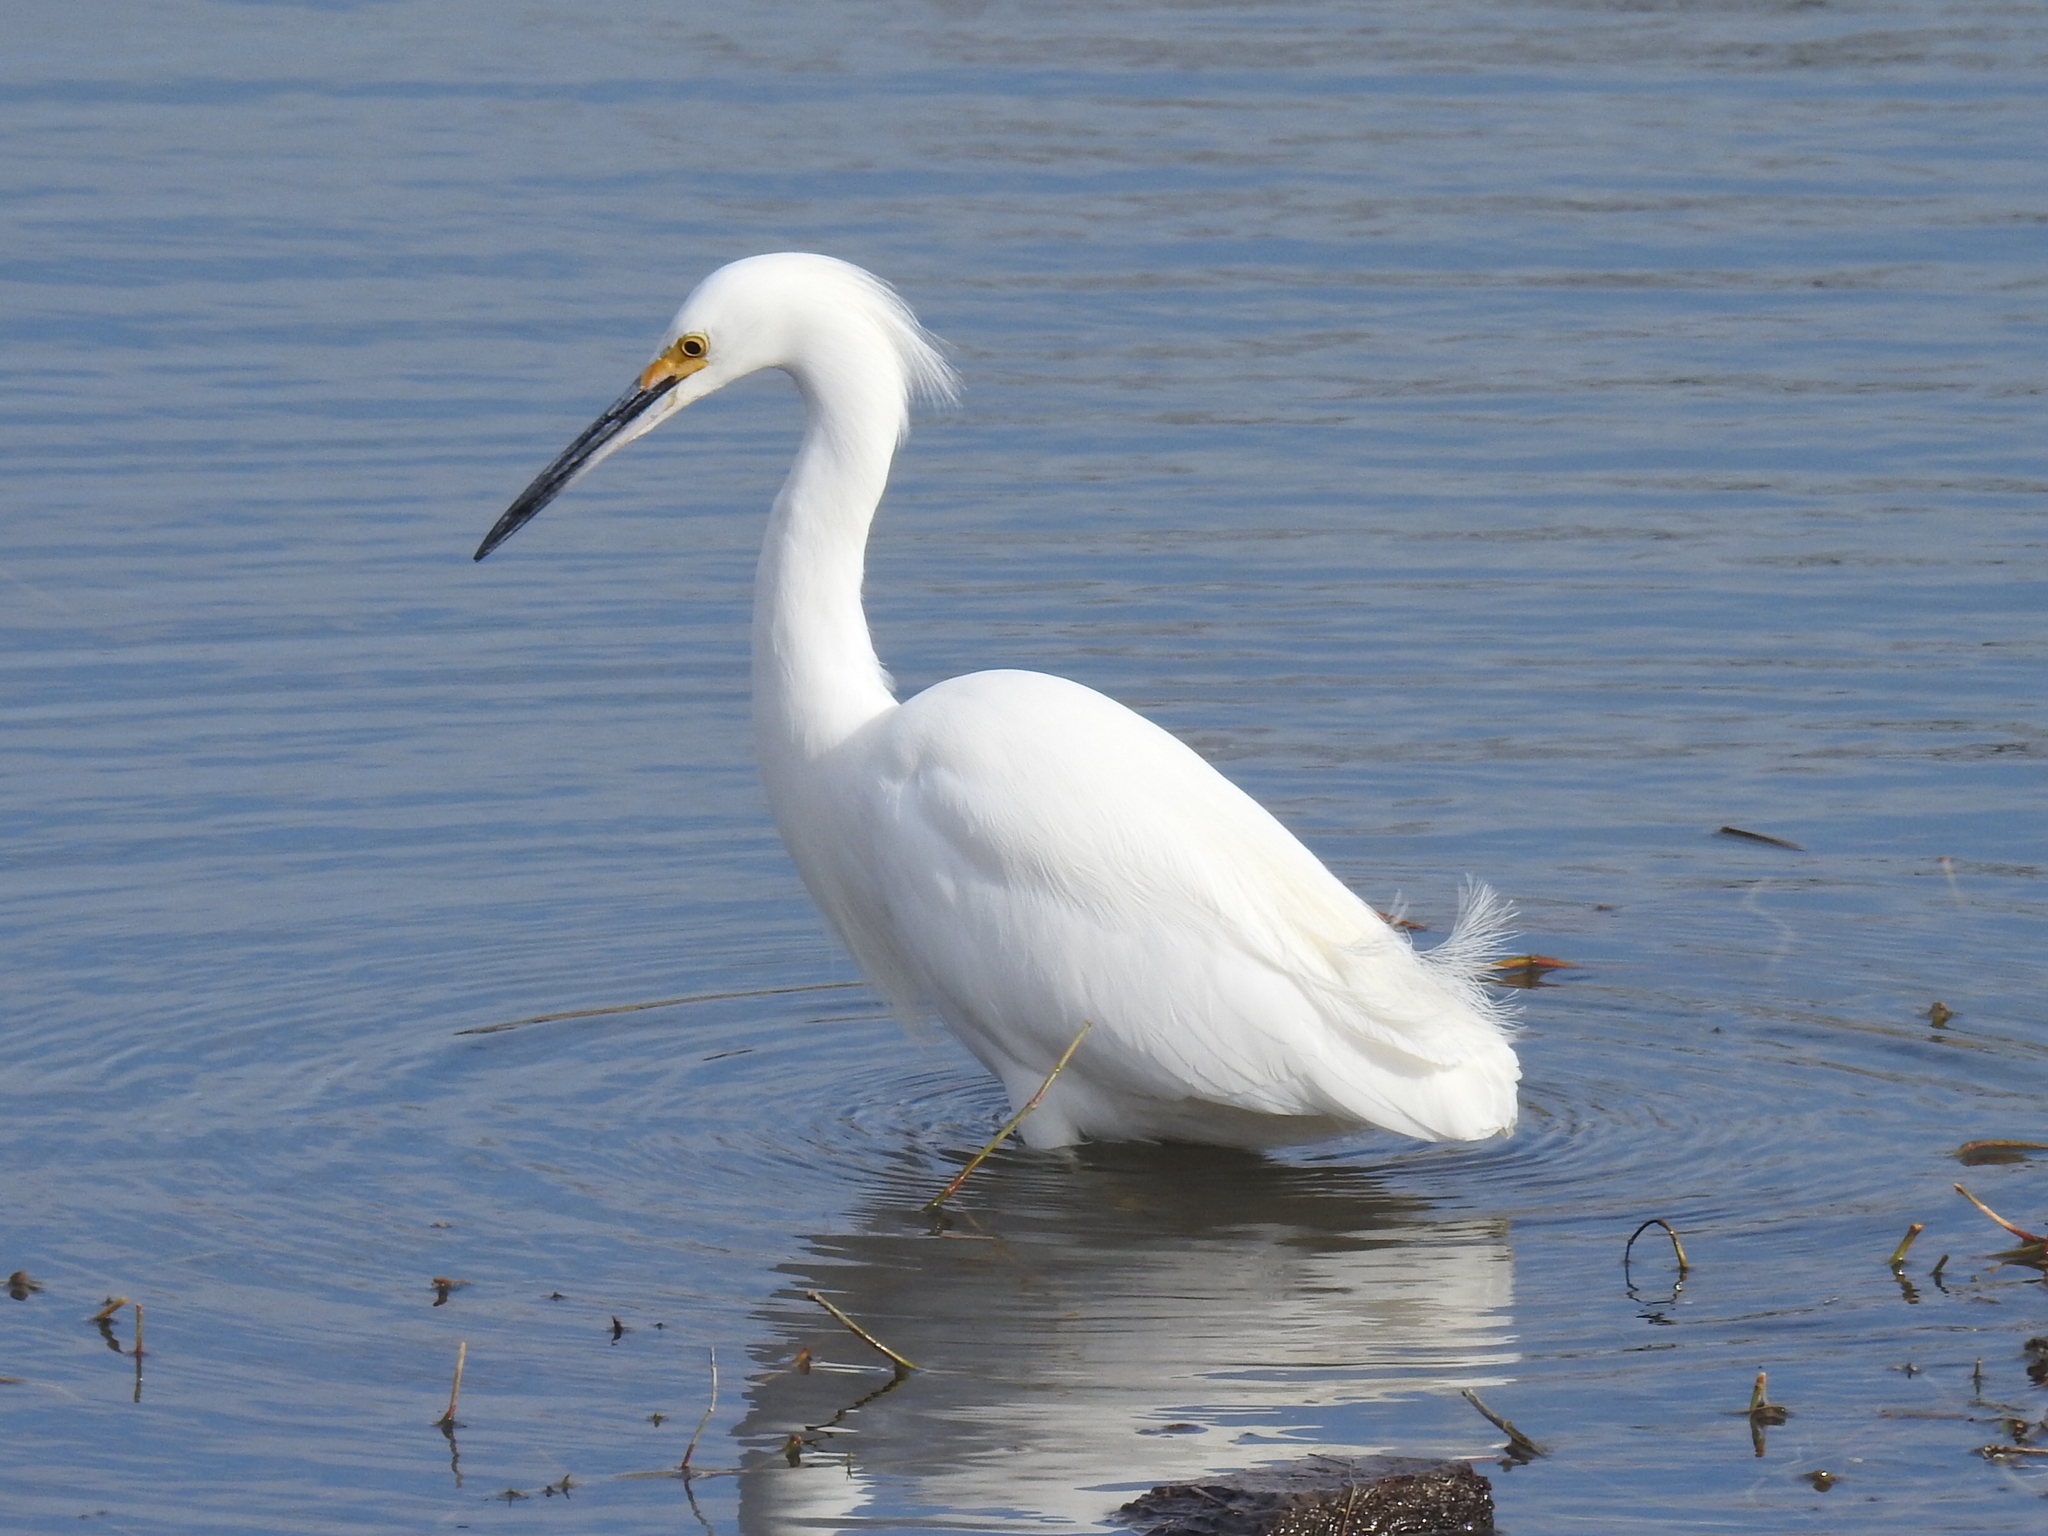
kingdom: Animalia
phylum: Chordata
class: Aves
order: Pelecaniformes
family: Ardeidae
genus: Egretta
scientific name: Egretta thula
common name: Snowy egret
